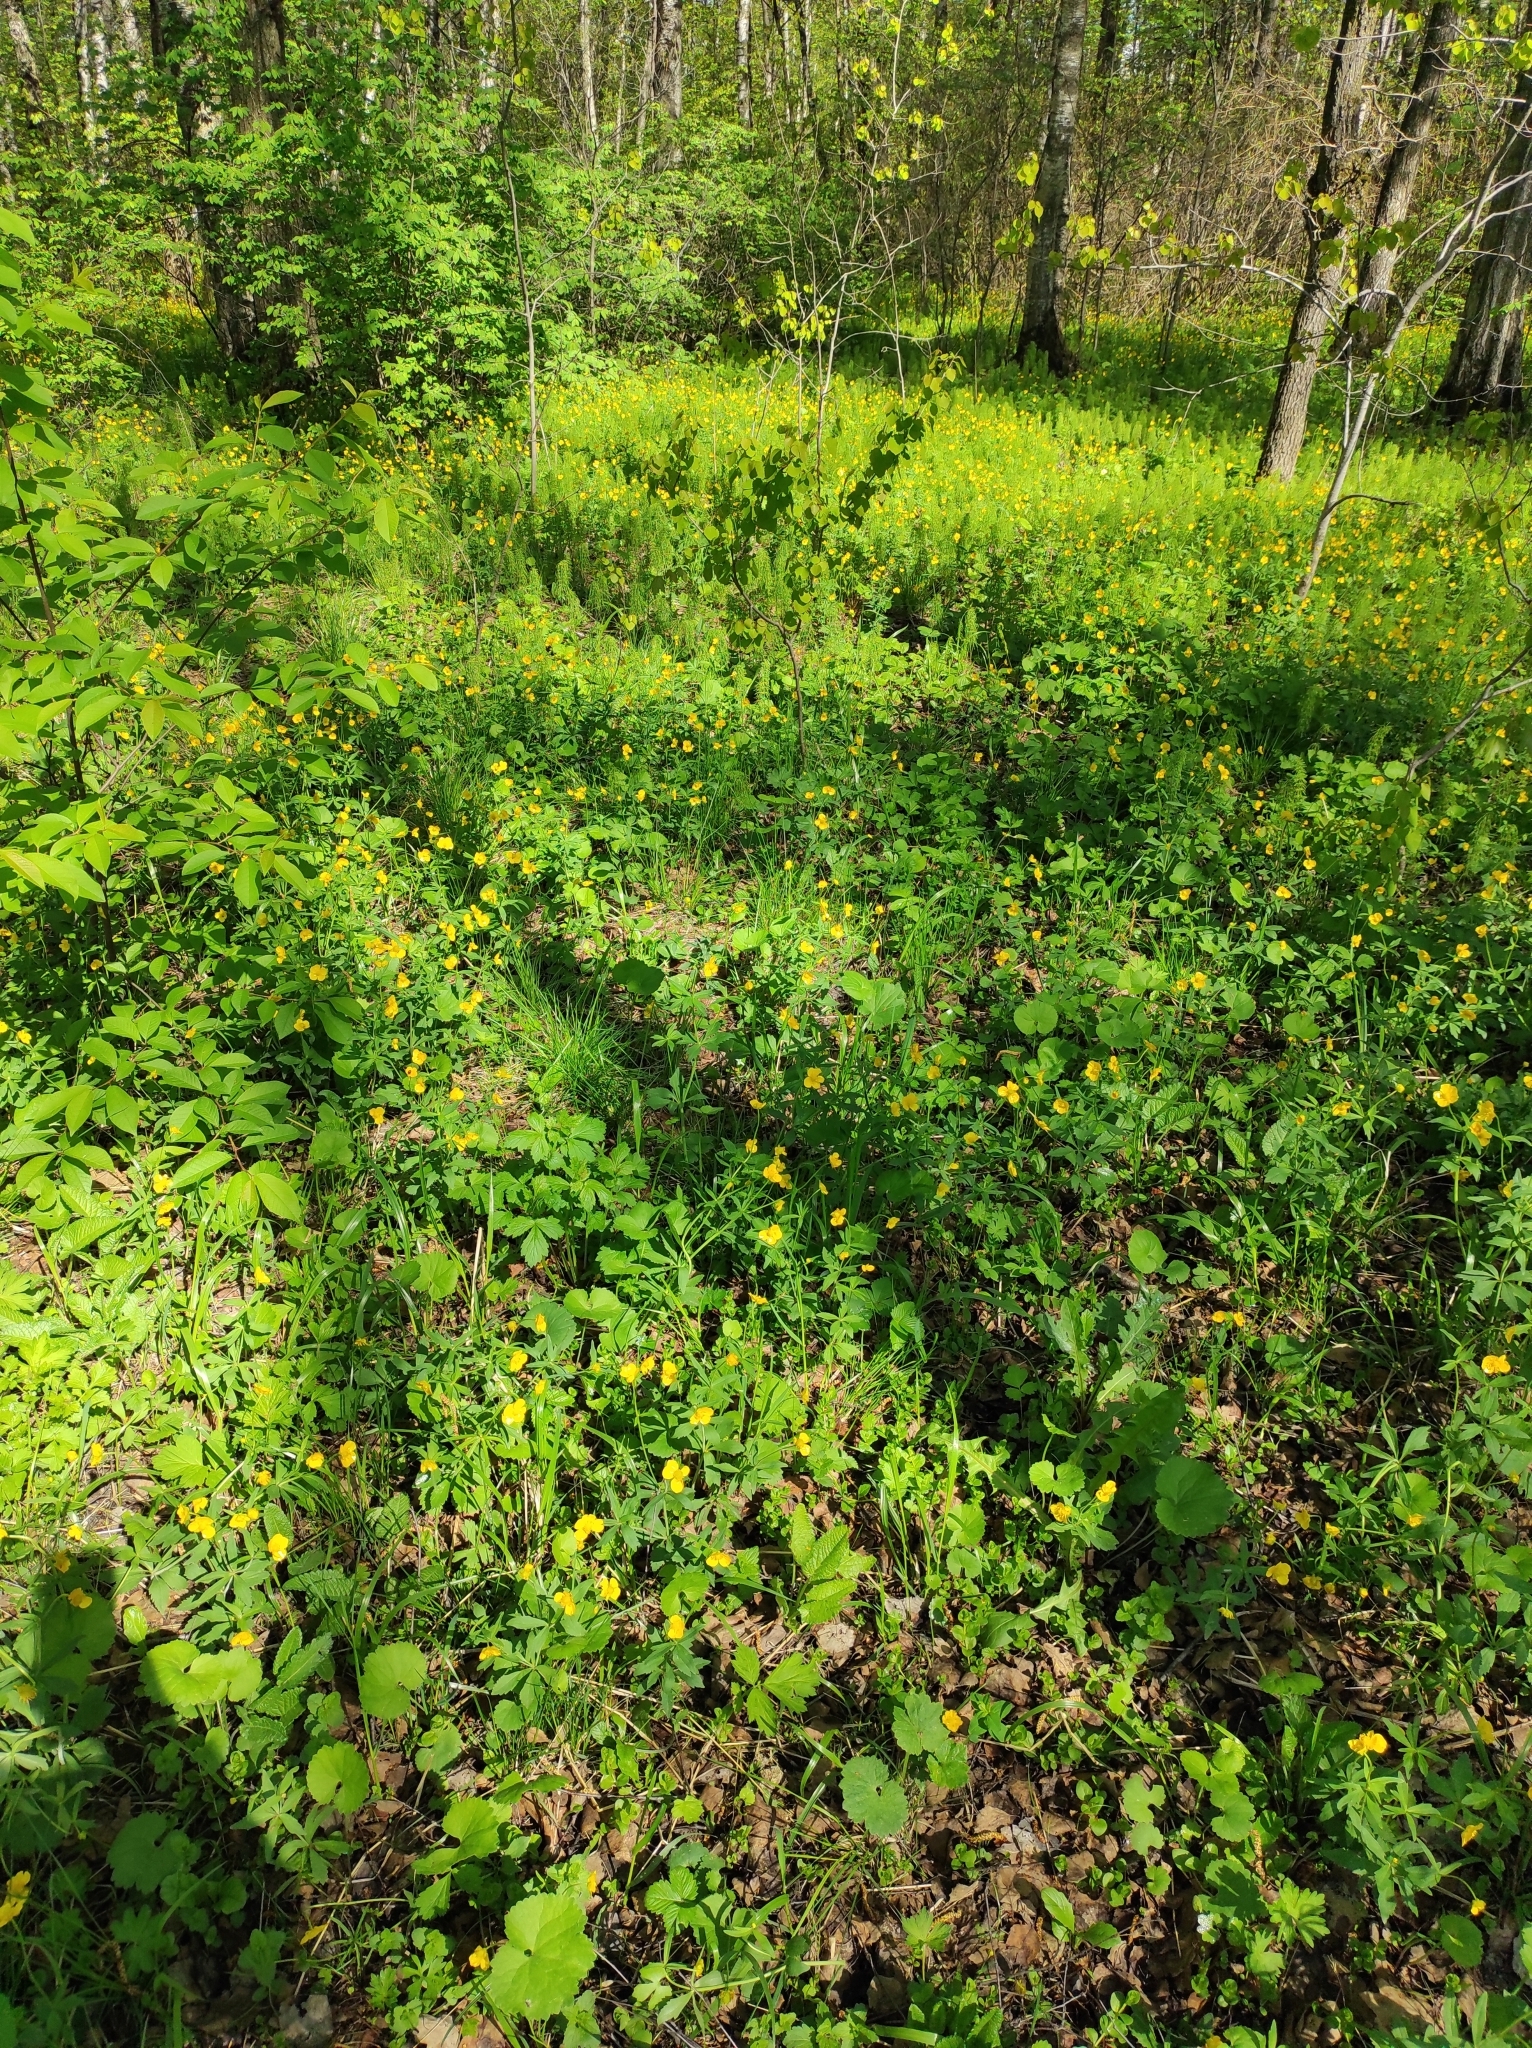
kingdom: Plantae
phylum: Tracheophyta
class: Magnoliopsida
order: Ranunculales
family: Ranunculaceae
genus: Ranunculus
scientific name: Ranunculus cassubicus
